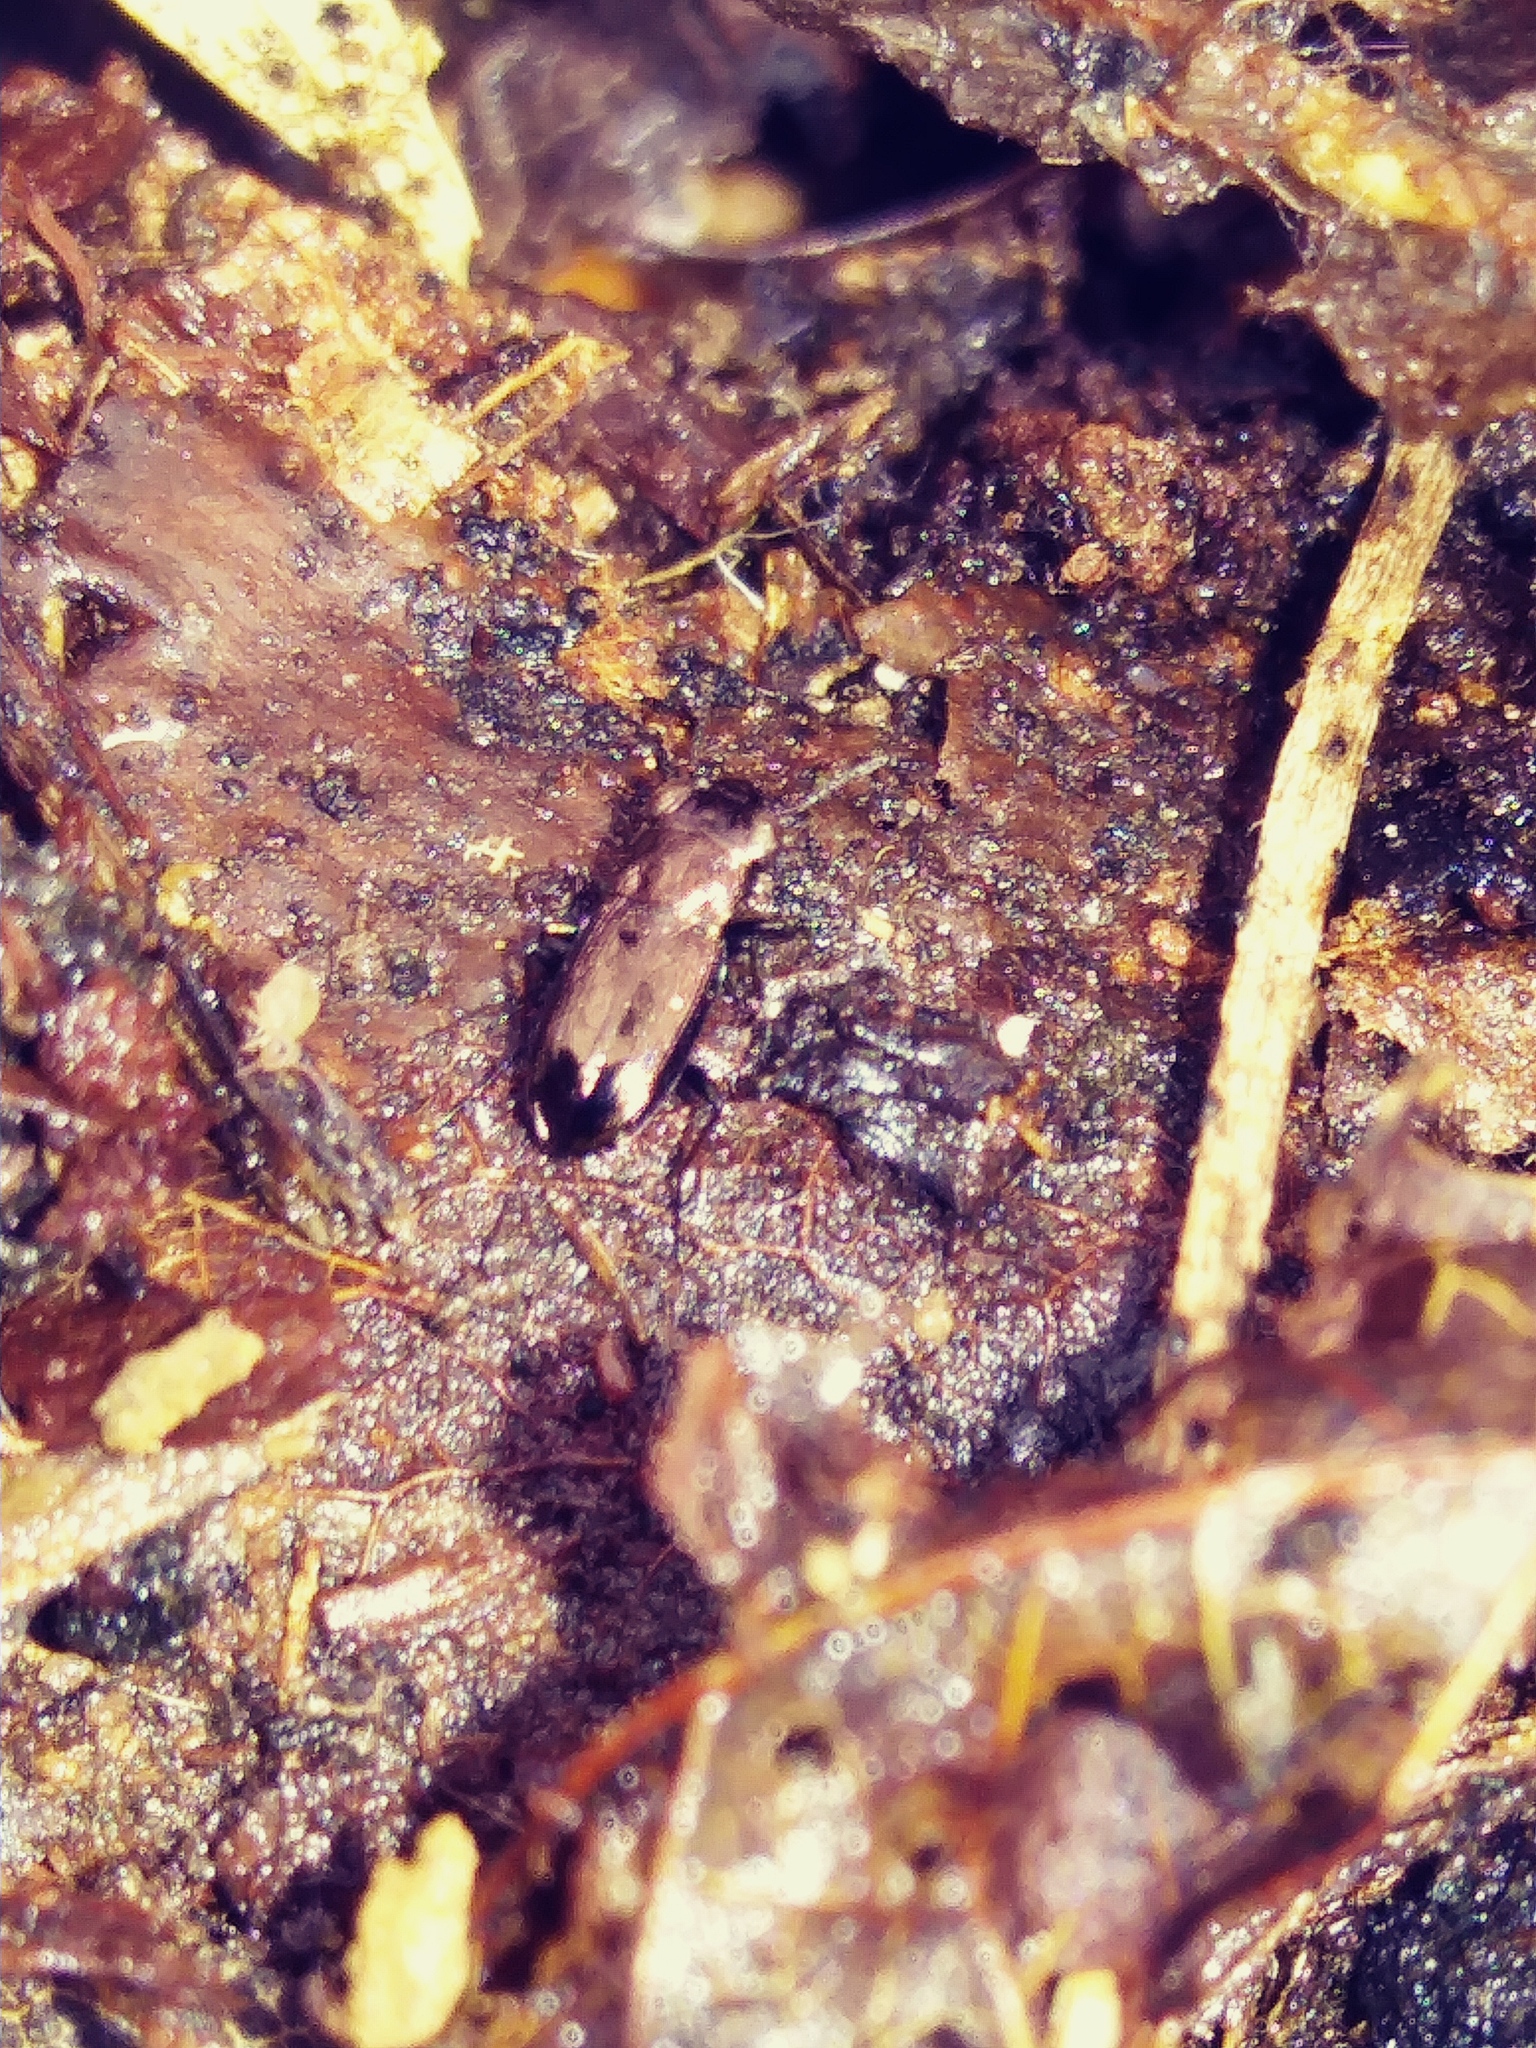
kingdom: Animalia
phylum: Arthropoda
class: Insecta
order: Coleoptera
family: Carabidae
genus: Notiophilus
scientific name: Notiophilus novemstriatus
